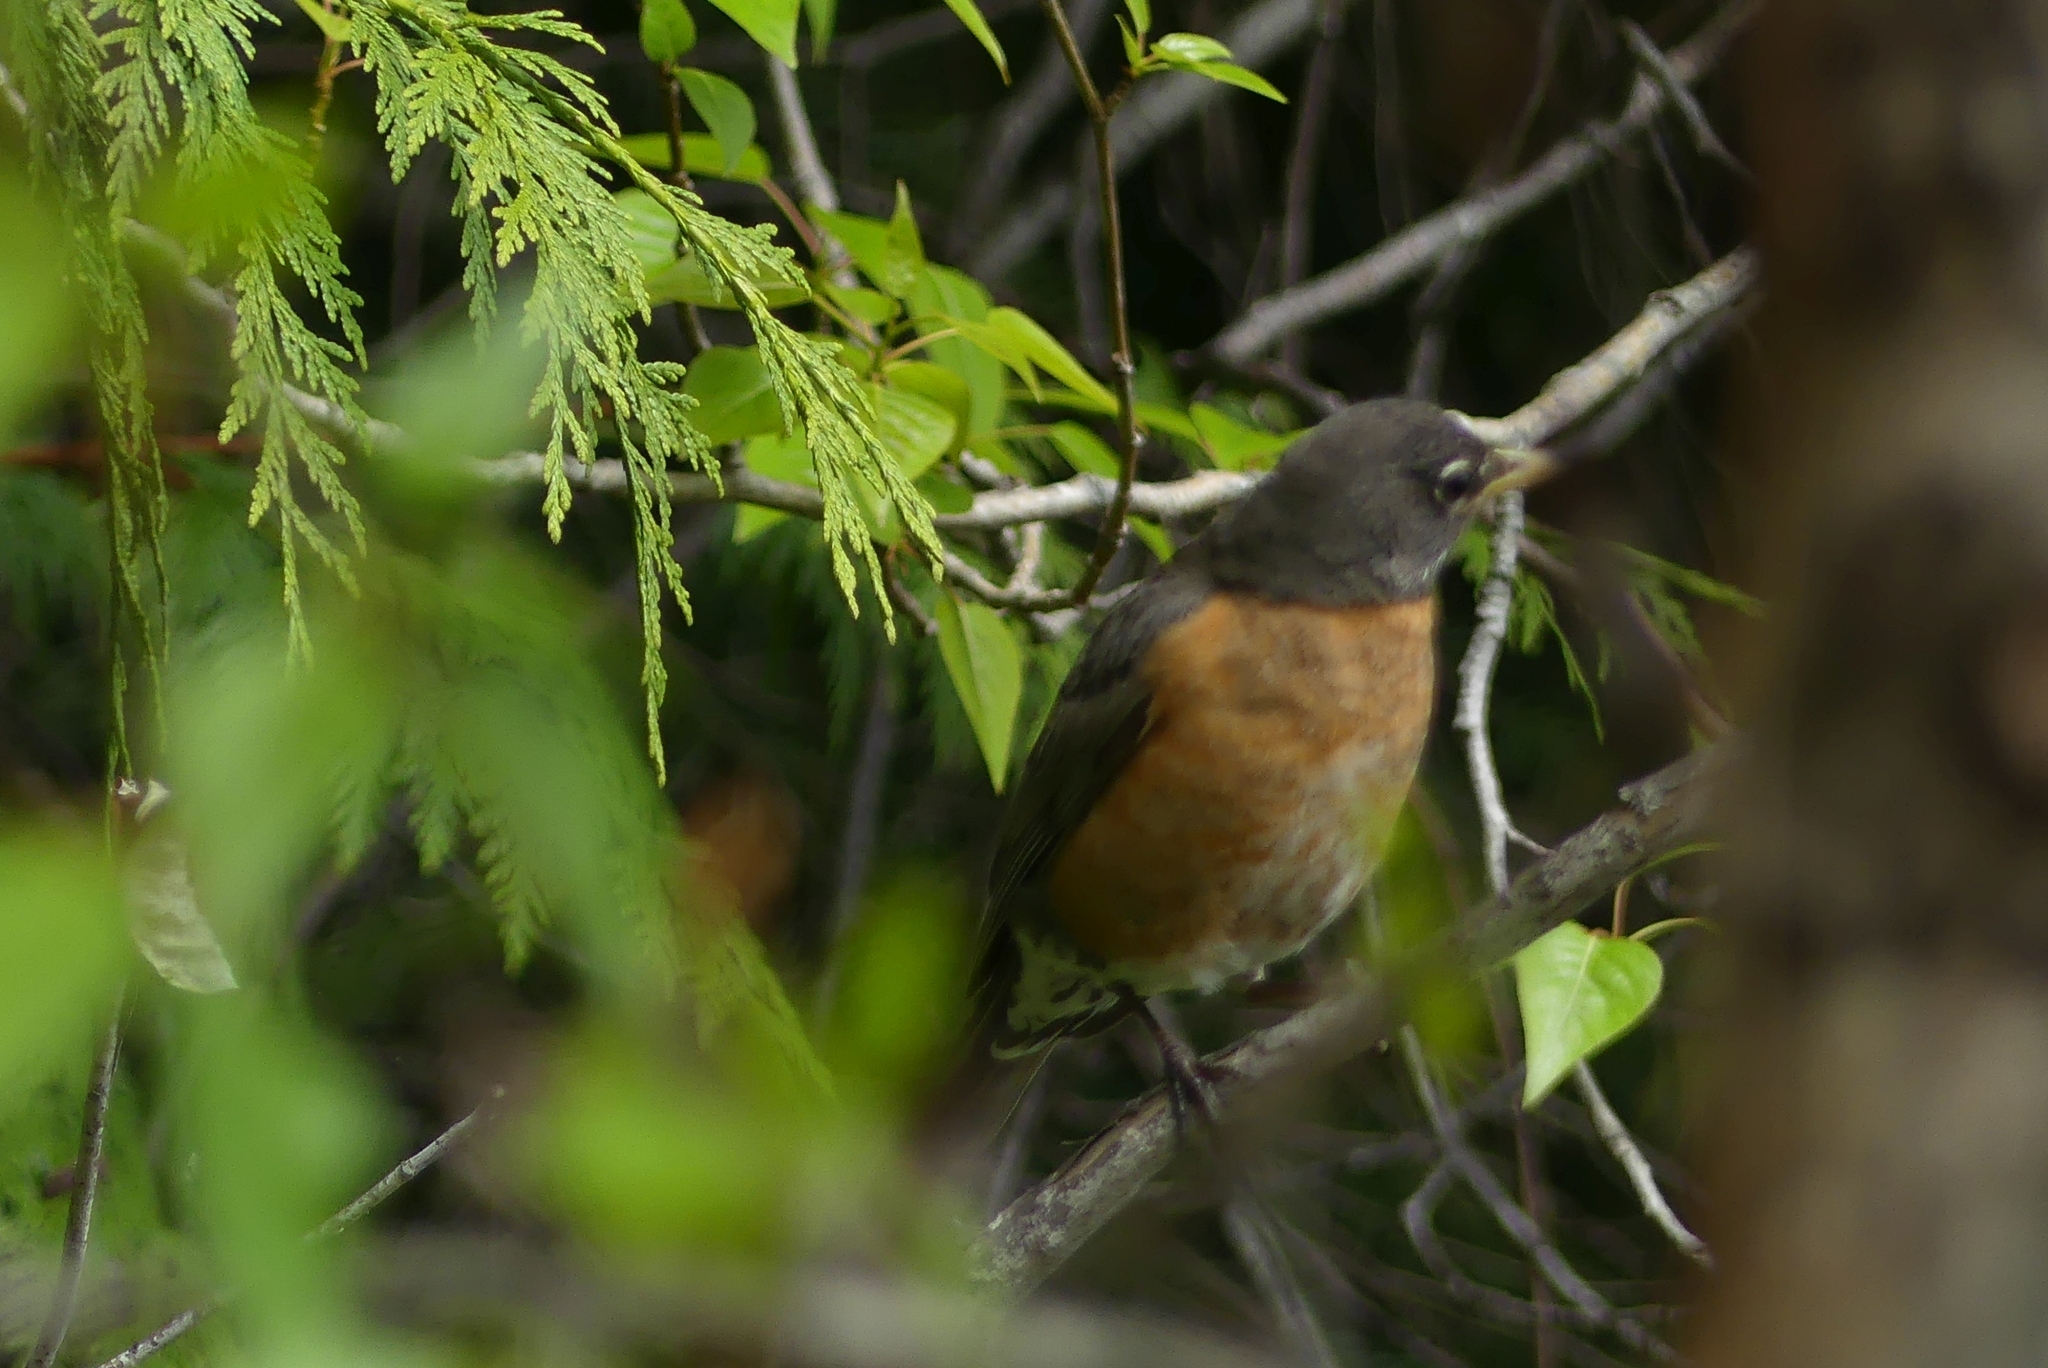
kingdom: Animalia
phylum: Chordata
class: Aves
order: Passeriformes
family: Turdidae
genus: Turdus
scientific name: Turdus migratorius
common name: American robin
